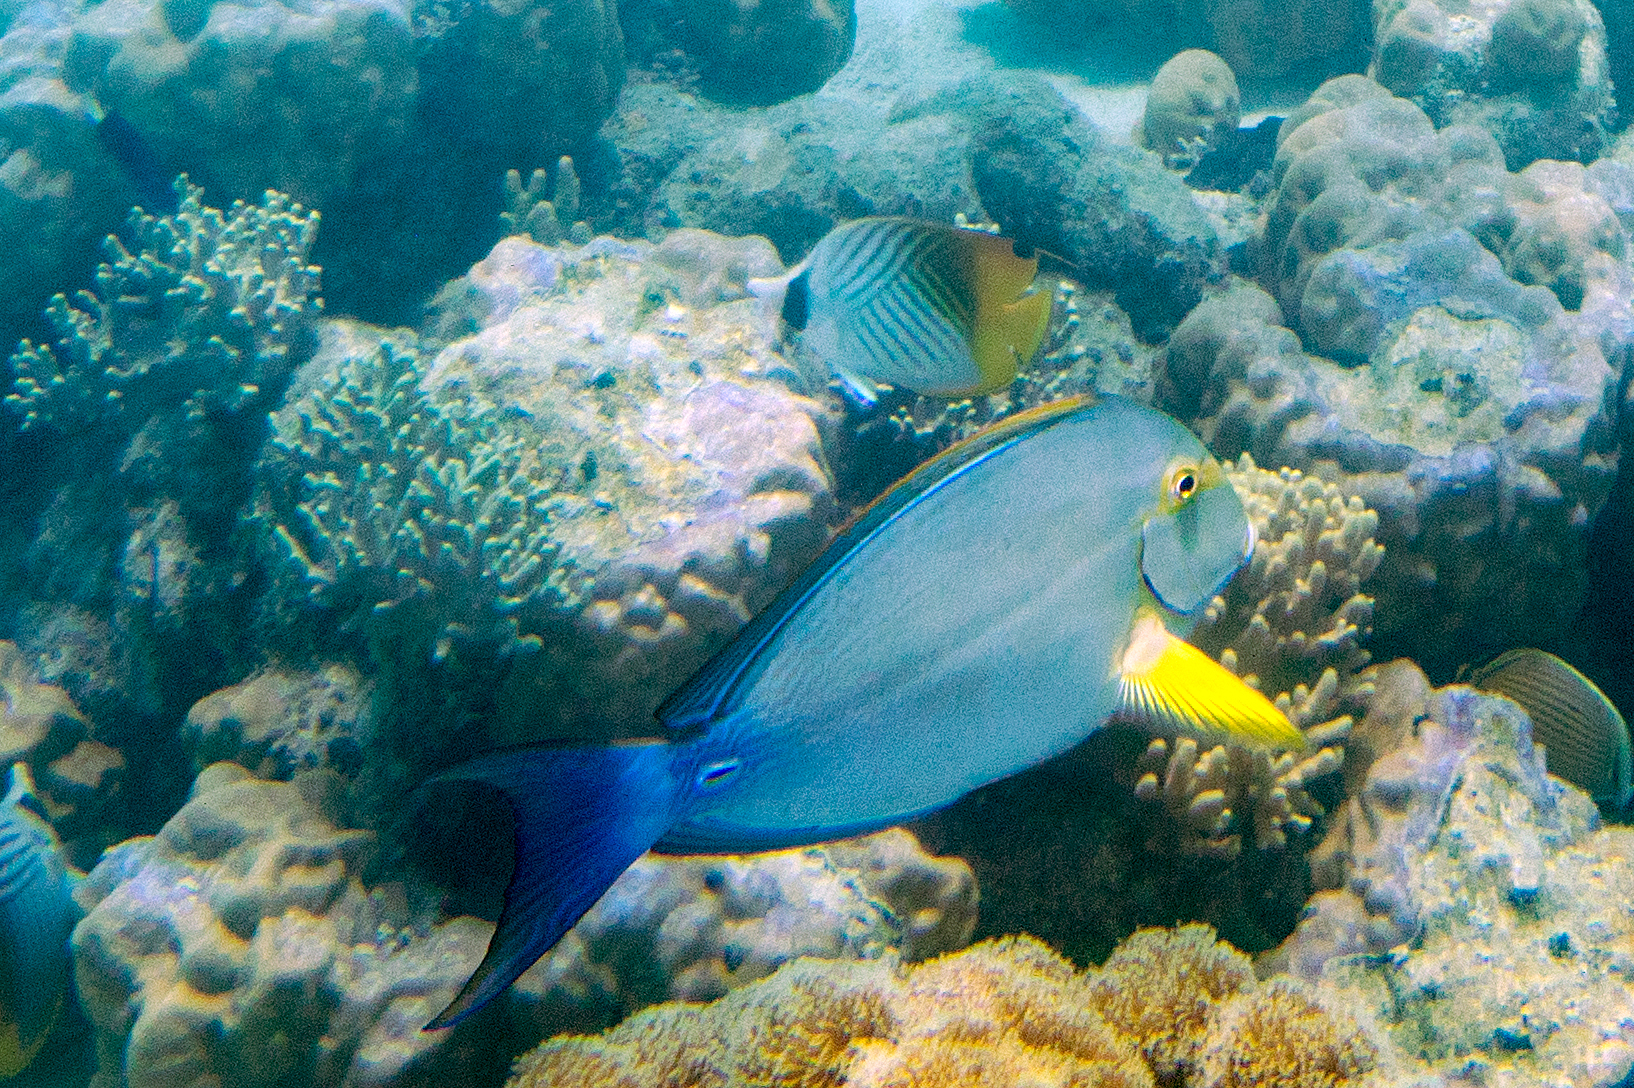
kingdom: Animalia
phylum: Chordata
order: Perciformes
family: Acanthuridae
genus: Acanthurus
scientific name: Acanthurus xanthopterus
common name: Cuvier's surgeonfish
